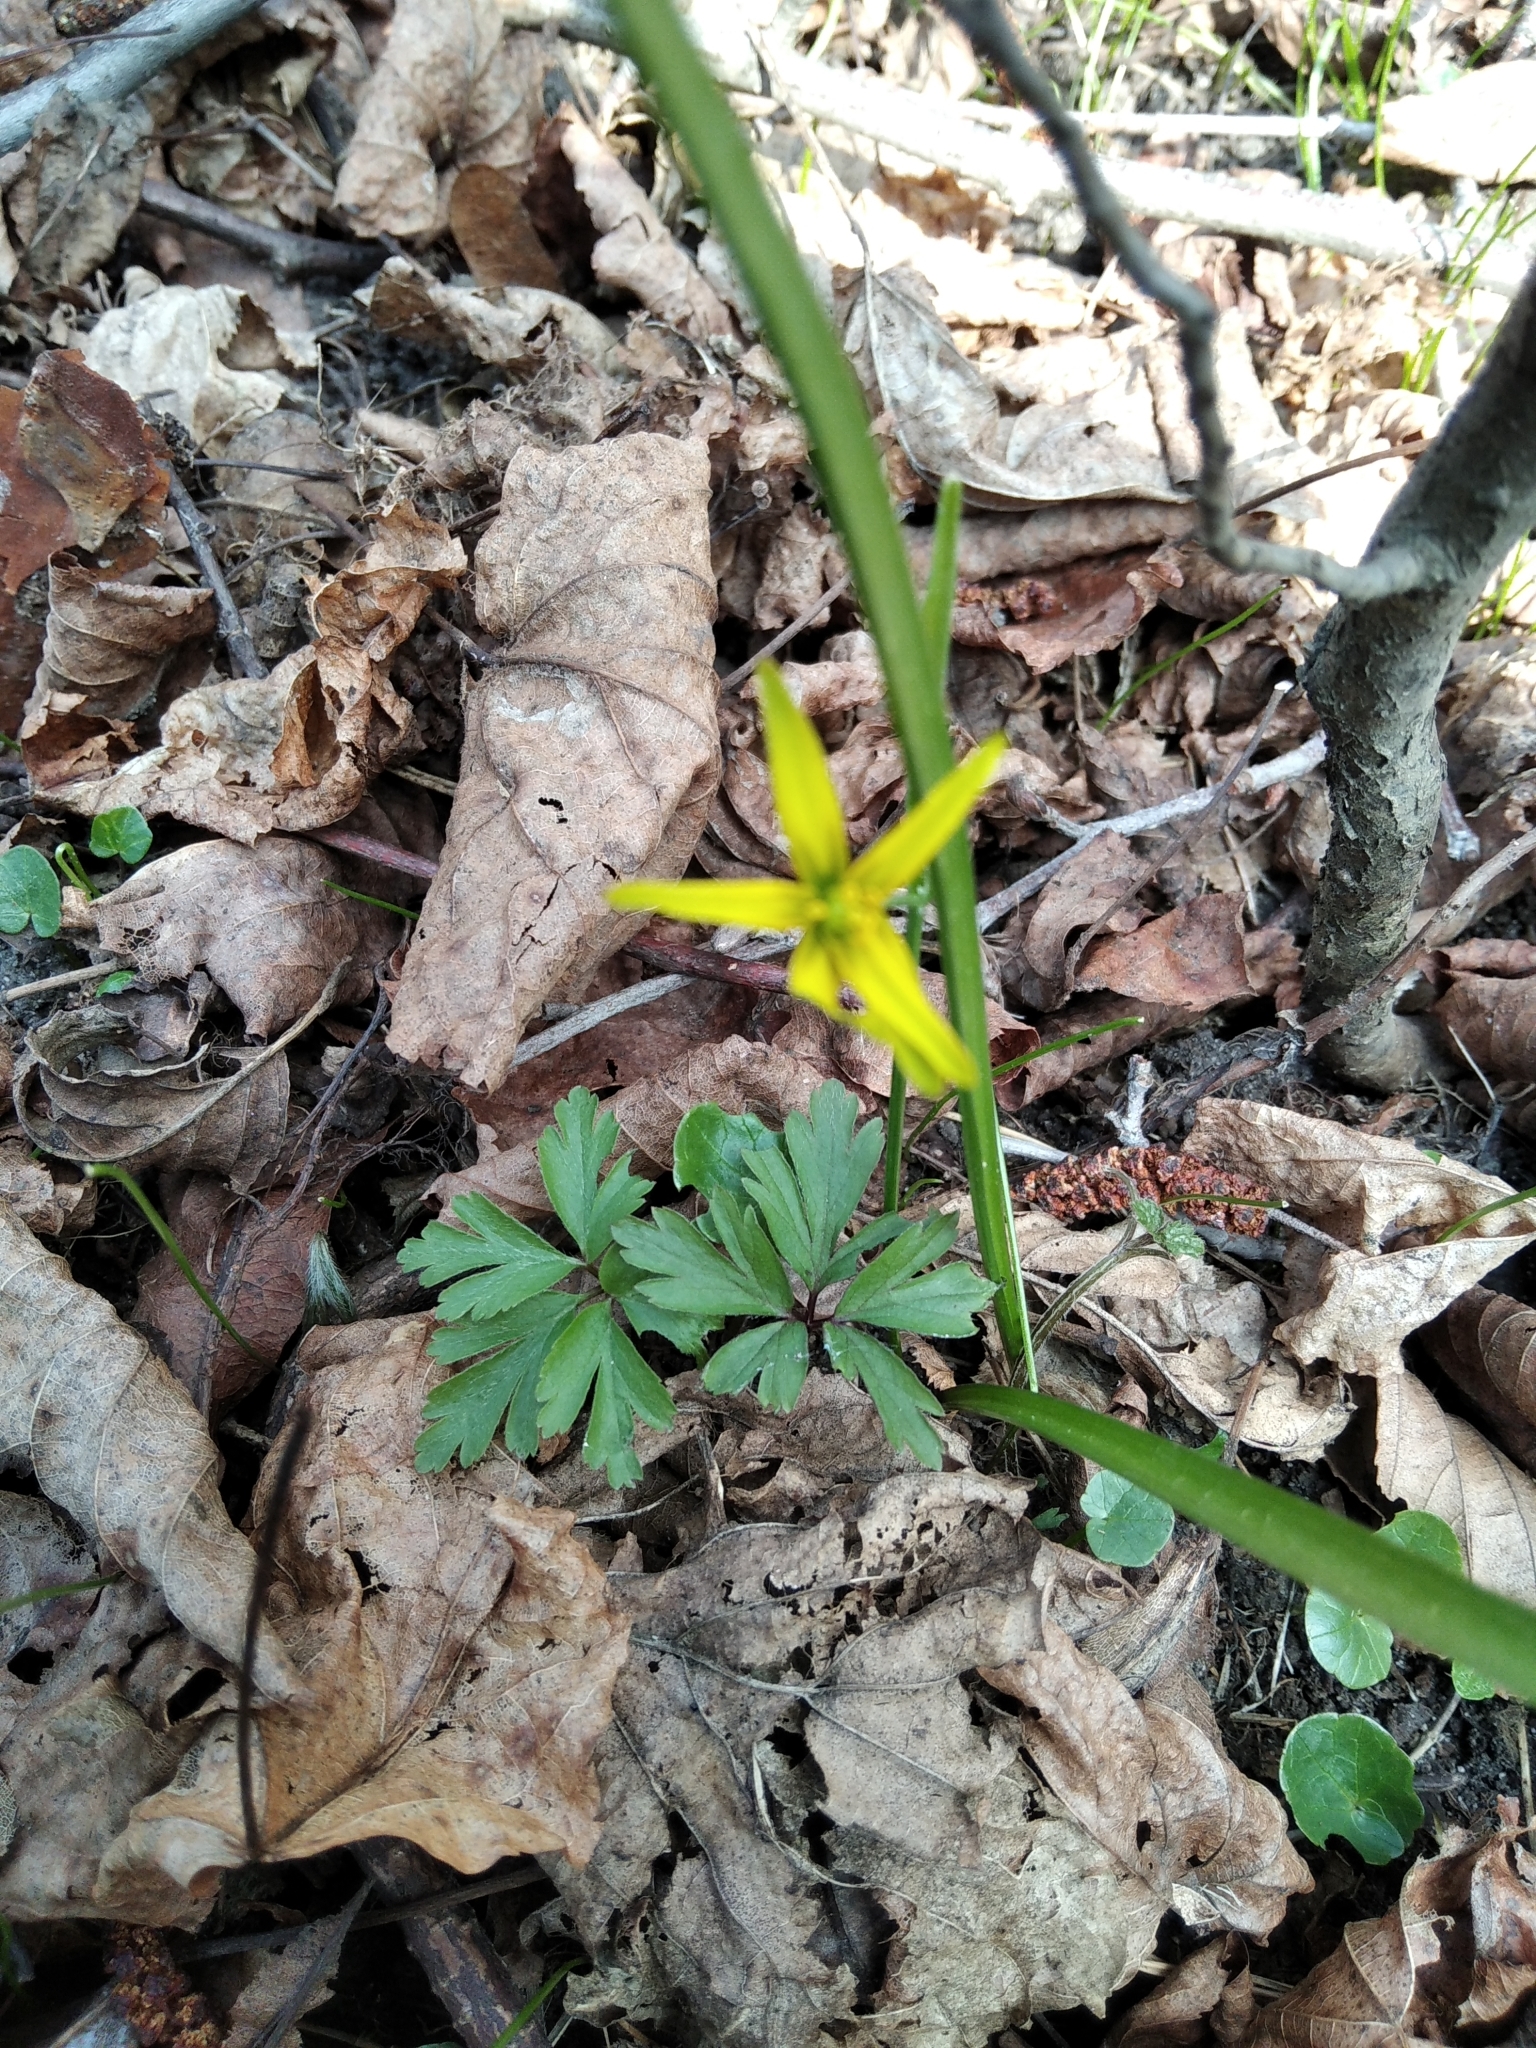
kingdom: Plantae
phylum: Tracheophyta
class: Liliopsida
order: Liliales
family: Liliaceae
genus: Gagea
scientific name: Gagea lutea
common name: Yellow star-of-bethlehem
